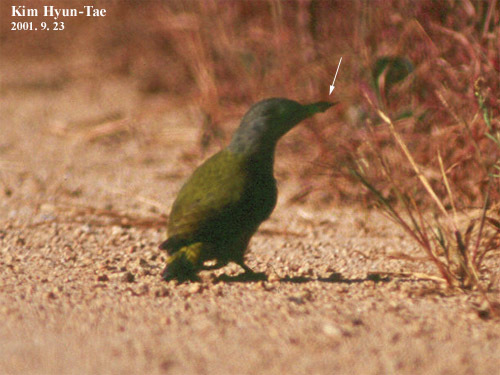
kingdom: Animalia
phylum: Chordata
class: Aves
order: Piciformes
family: Picidae
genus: Picus
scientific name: Picus canus
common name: Grey-headed woodpecker
